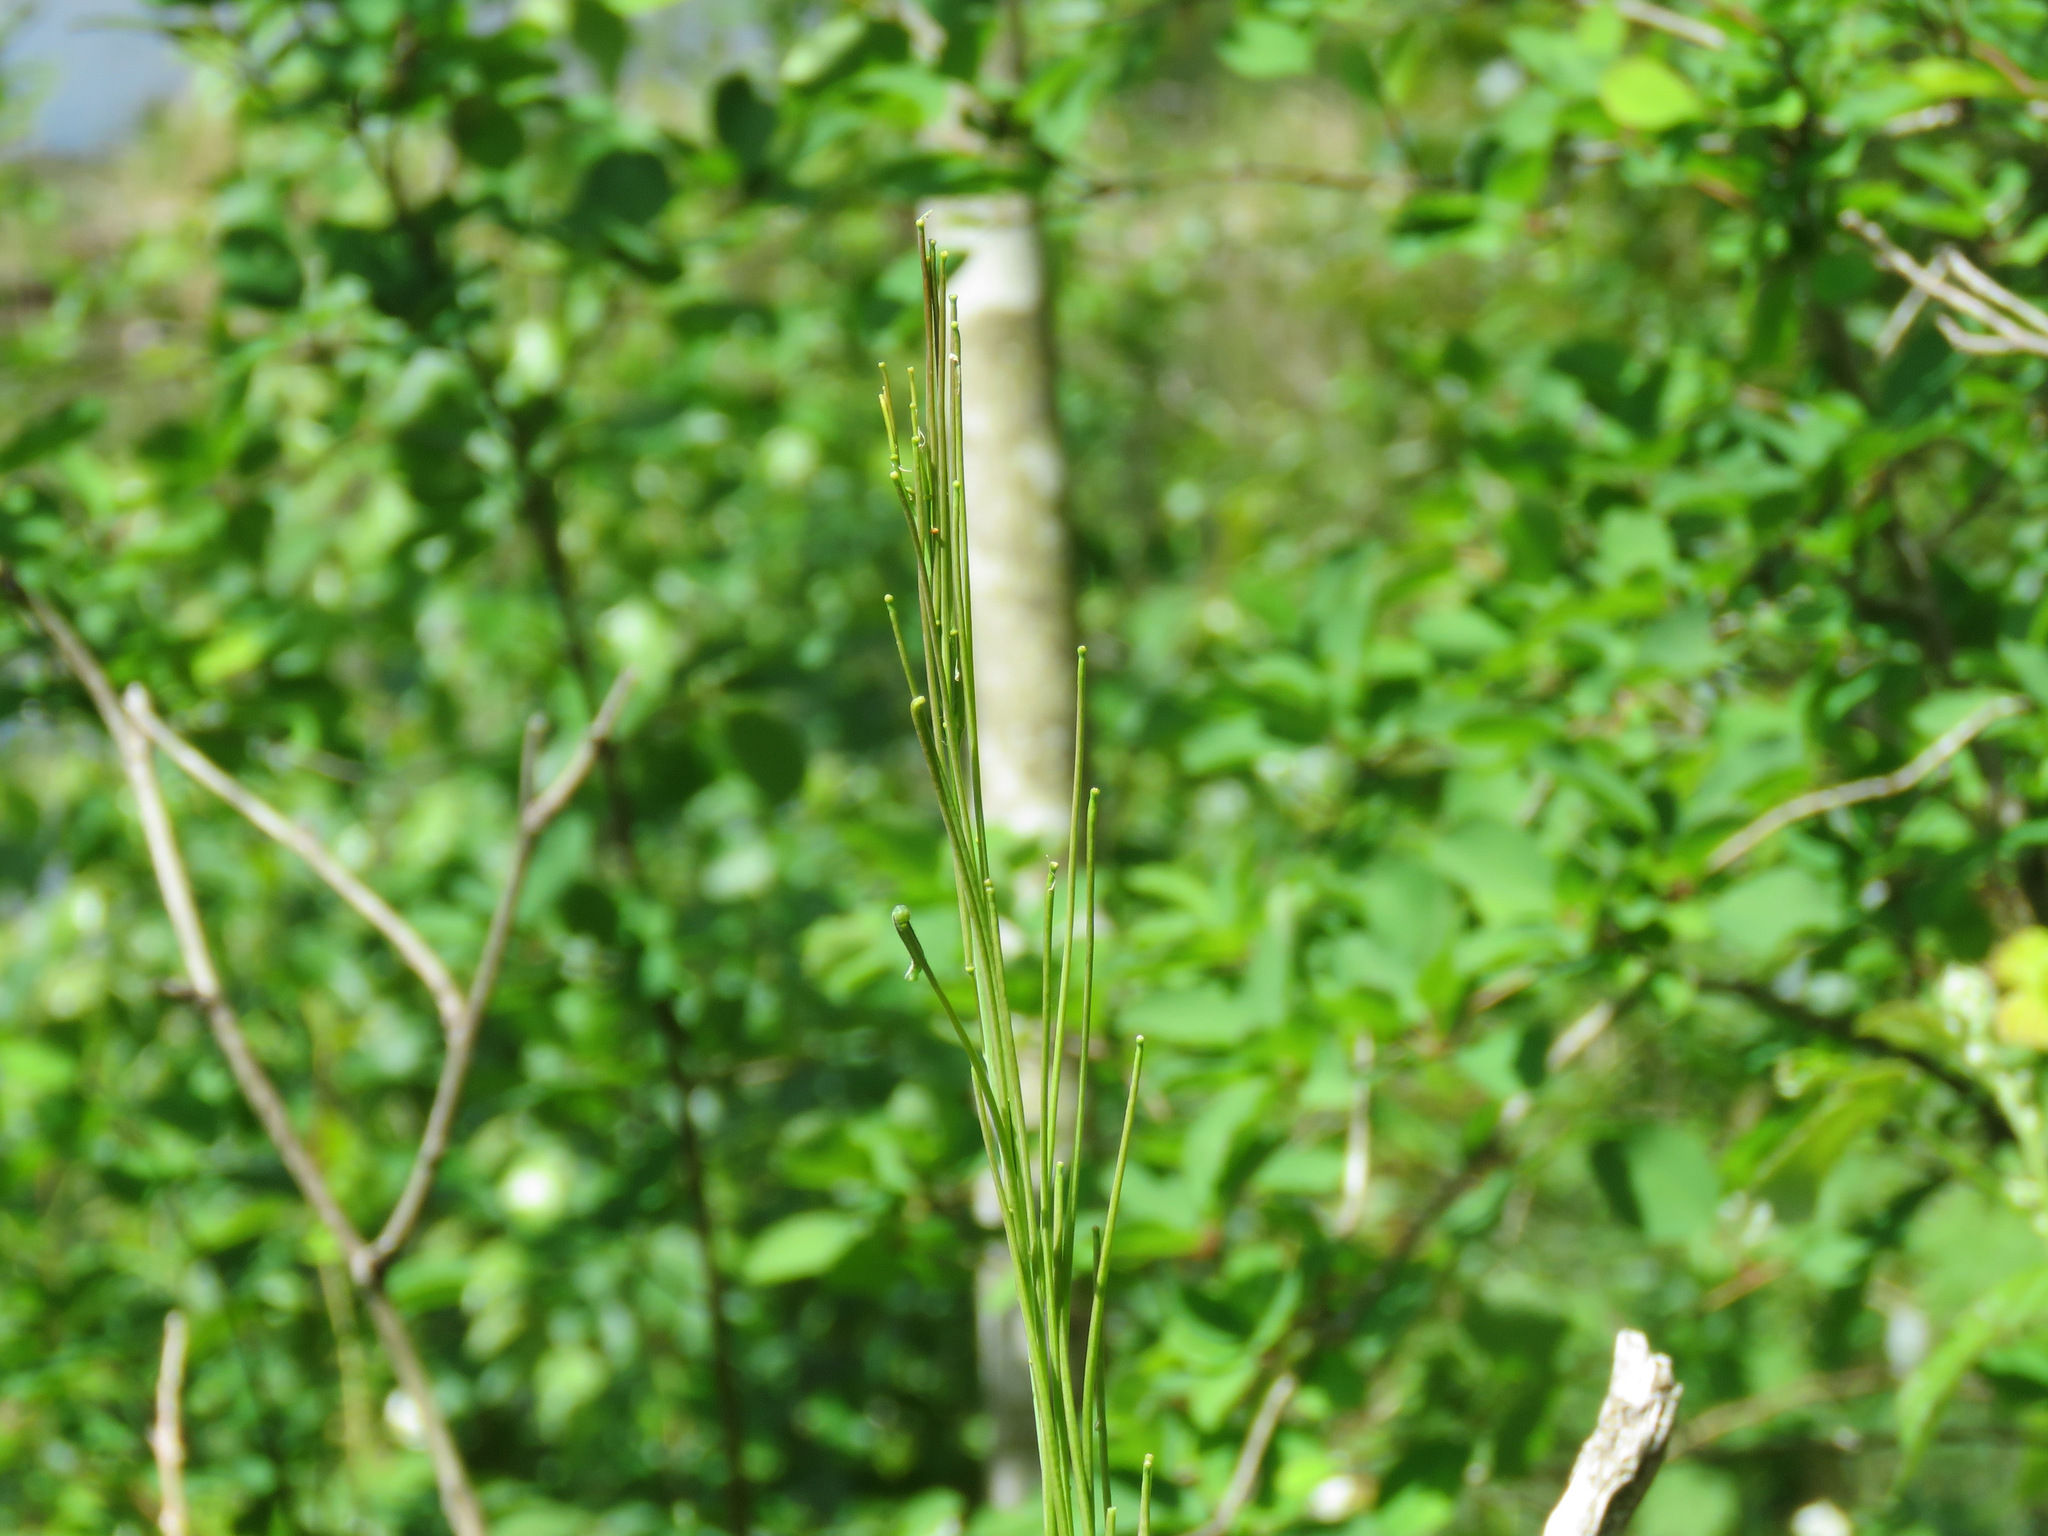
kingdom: Plantae
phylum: Tracheophyta
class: Magnoliopsida
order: Brassicales
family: Brassicaceae
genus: Turritis
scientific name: Turritis glabra
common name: Tower rockcress
